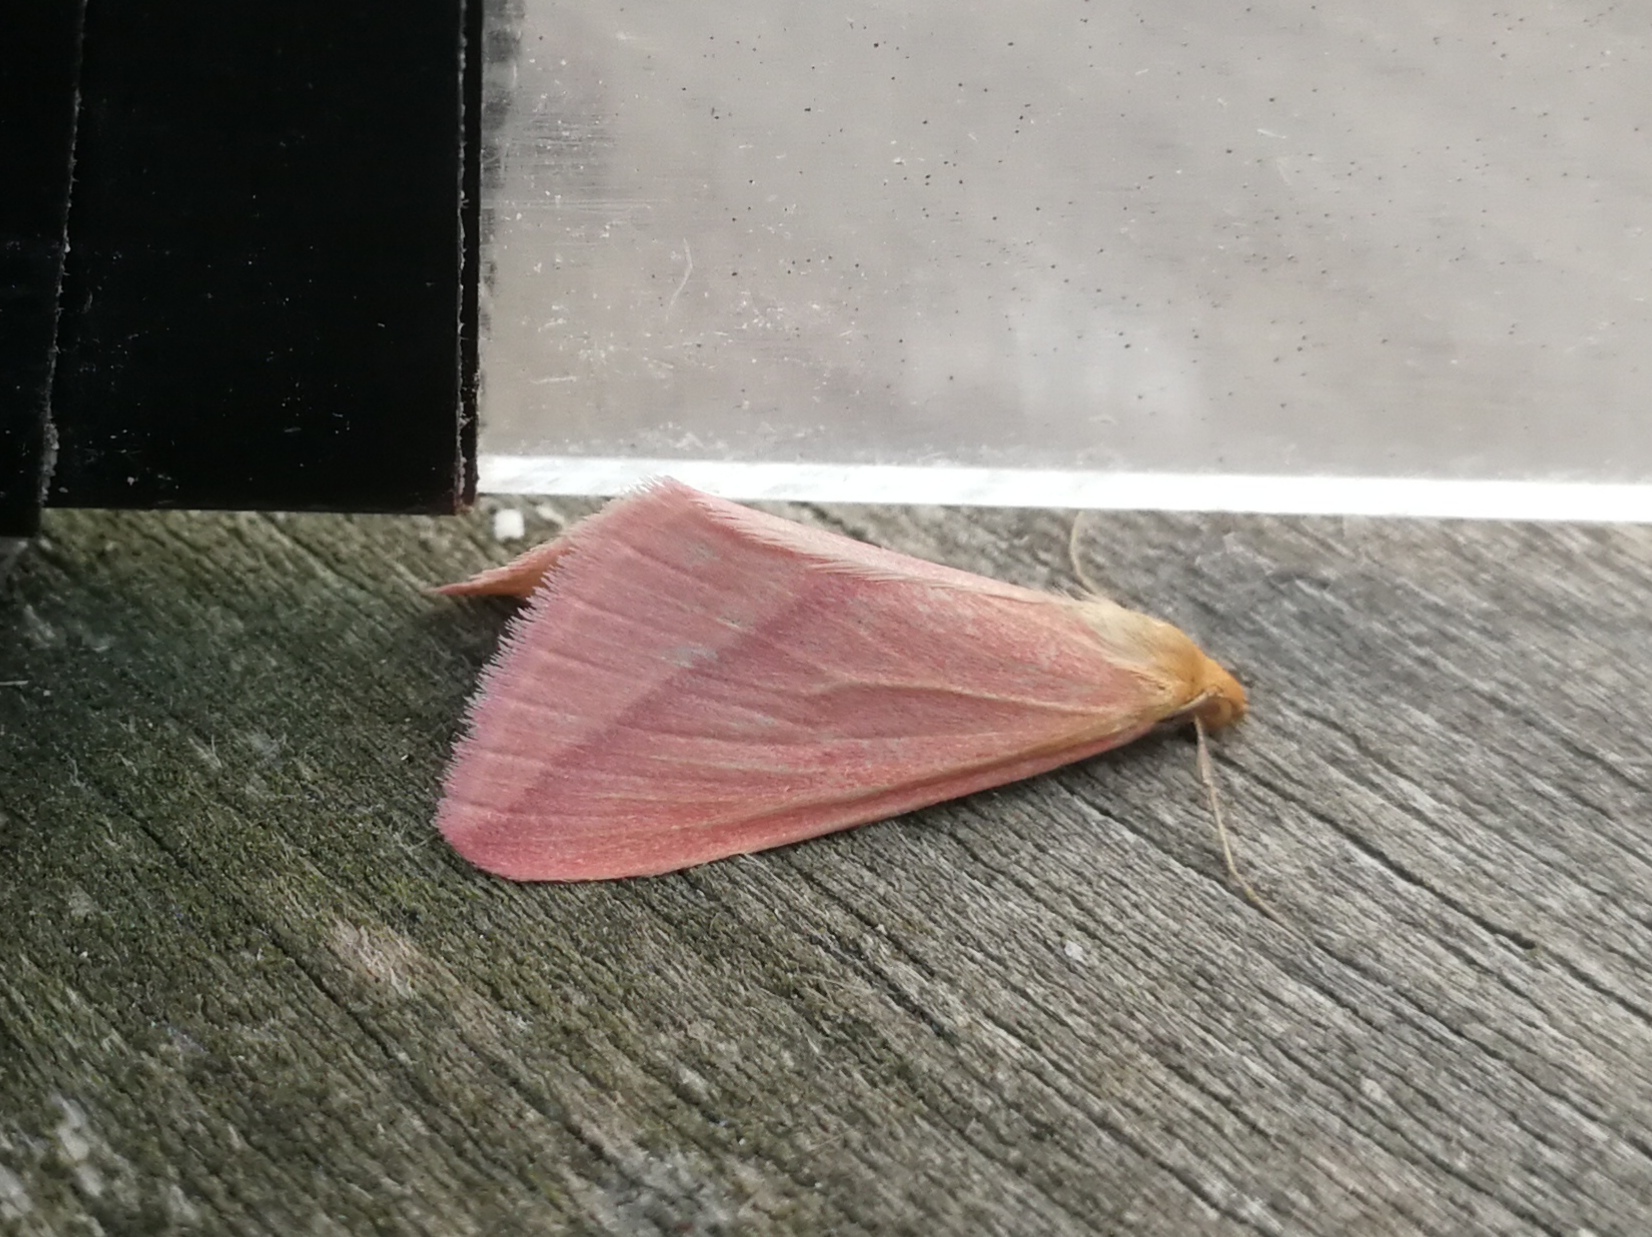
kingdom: Animalia
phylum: Arthropoda
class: Insecta
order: Lepidoptera
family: Geometridae
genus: Rhodometra
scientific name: Rhodometra sacraria
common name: Vestal
